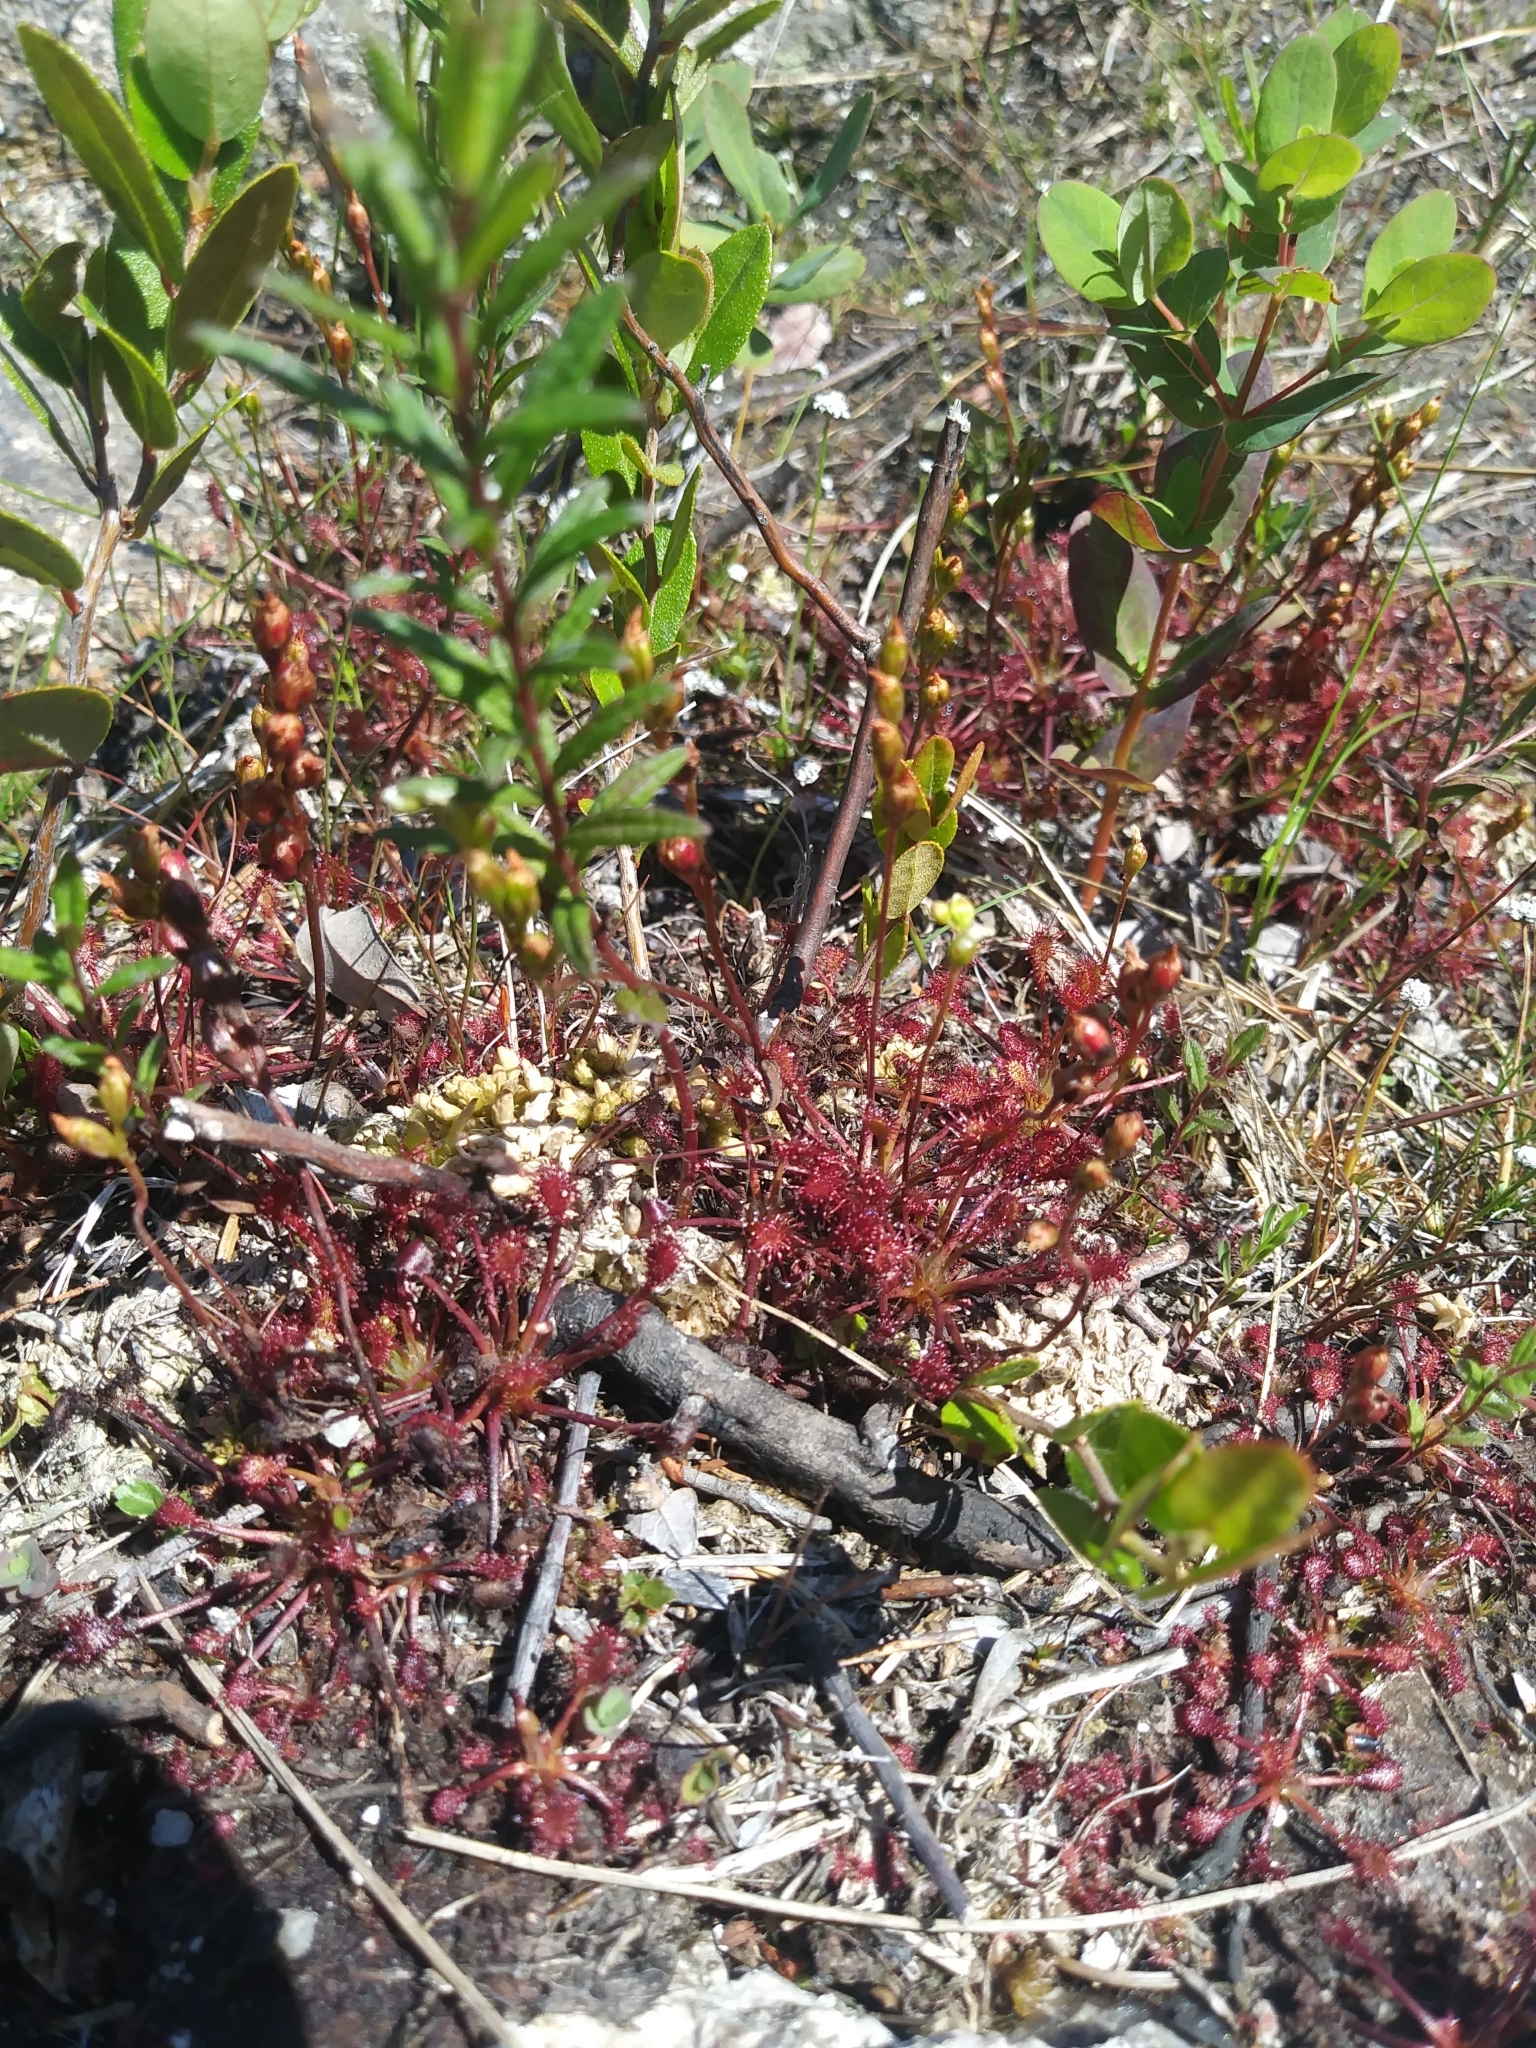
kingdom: Plantae
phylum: Tracheophyta
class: Magnoliopsida
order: Caryophyllales
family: Droseraceae
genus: Drosera
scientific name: Drosera intermedia
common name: Oblong-leaved sundew
